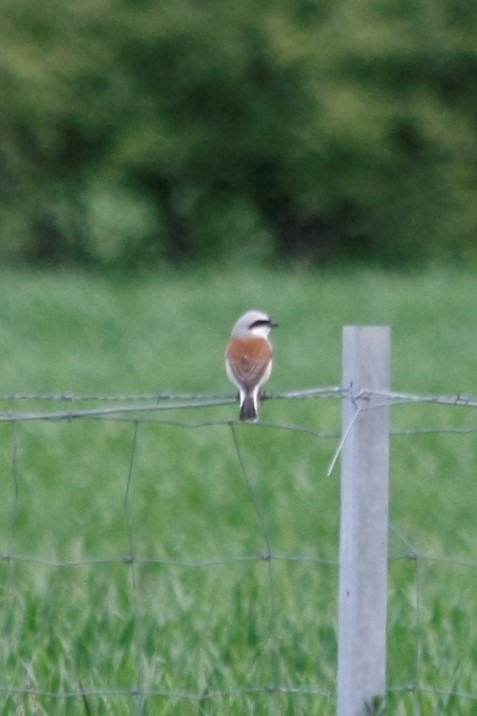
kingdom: Animalia
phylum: Chordata
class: Aves
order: Passeriformes
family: Laniidae
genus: Lanius
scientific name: Lanius collurio
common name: Red-backed shrike
